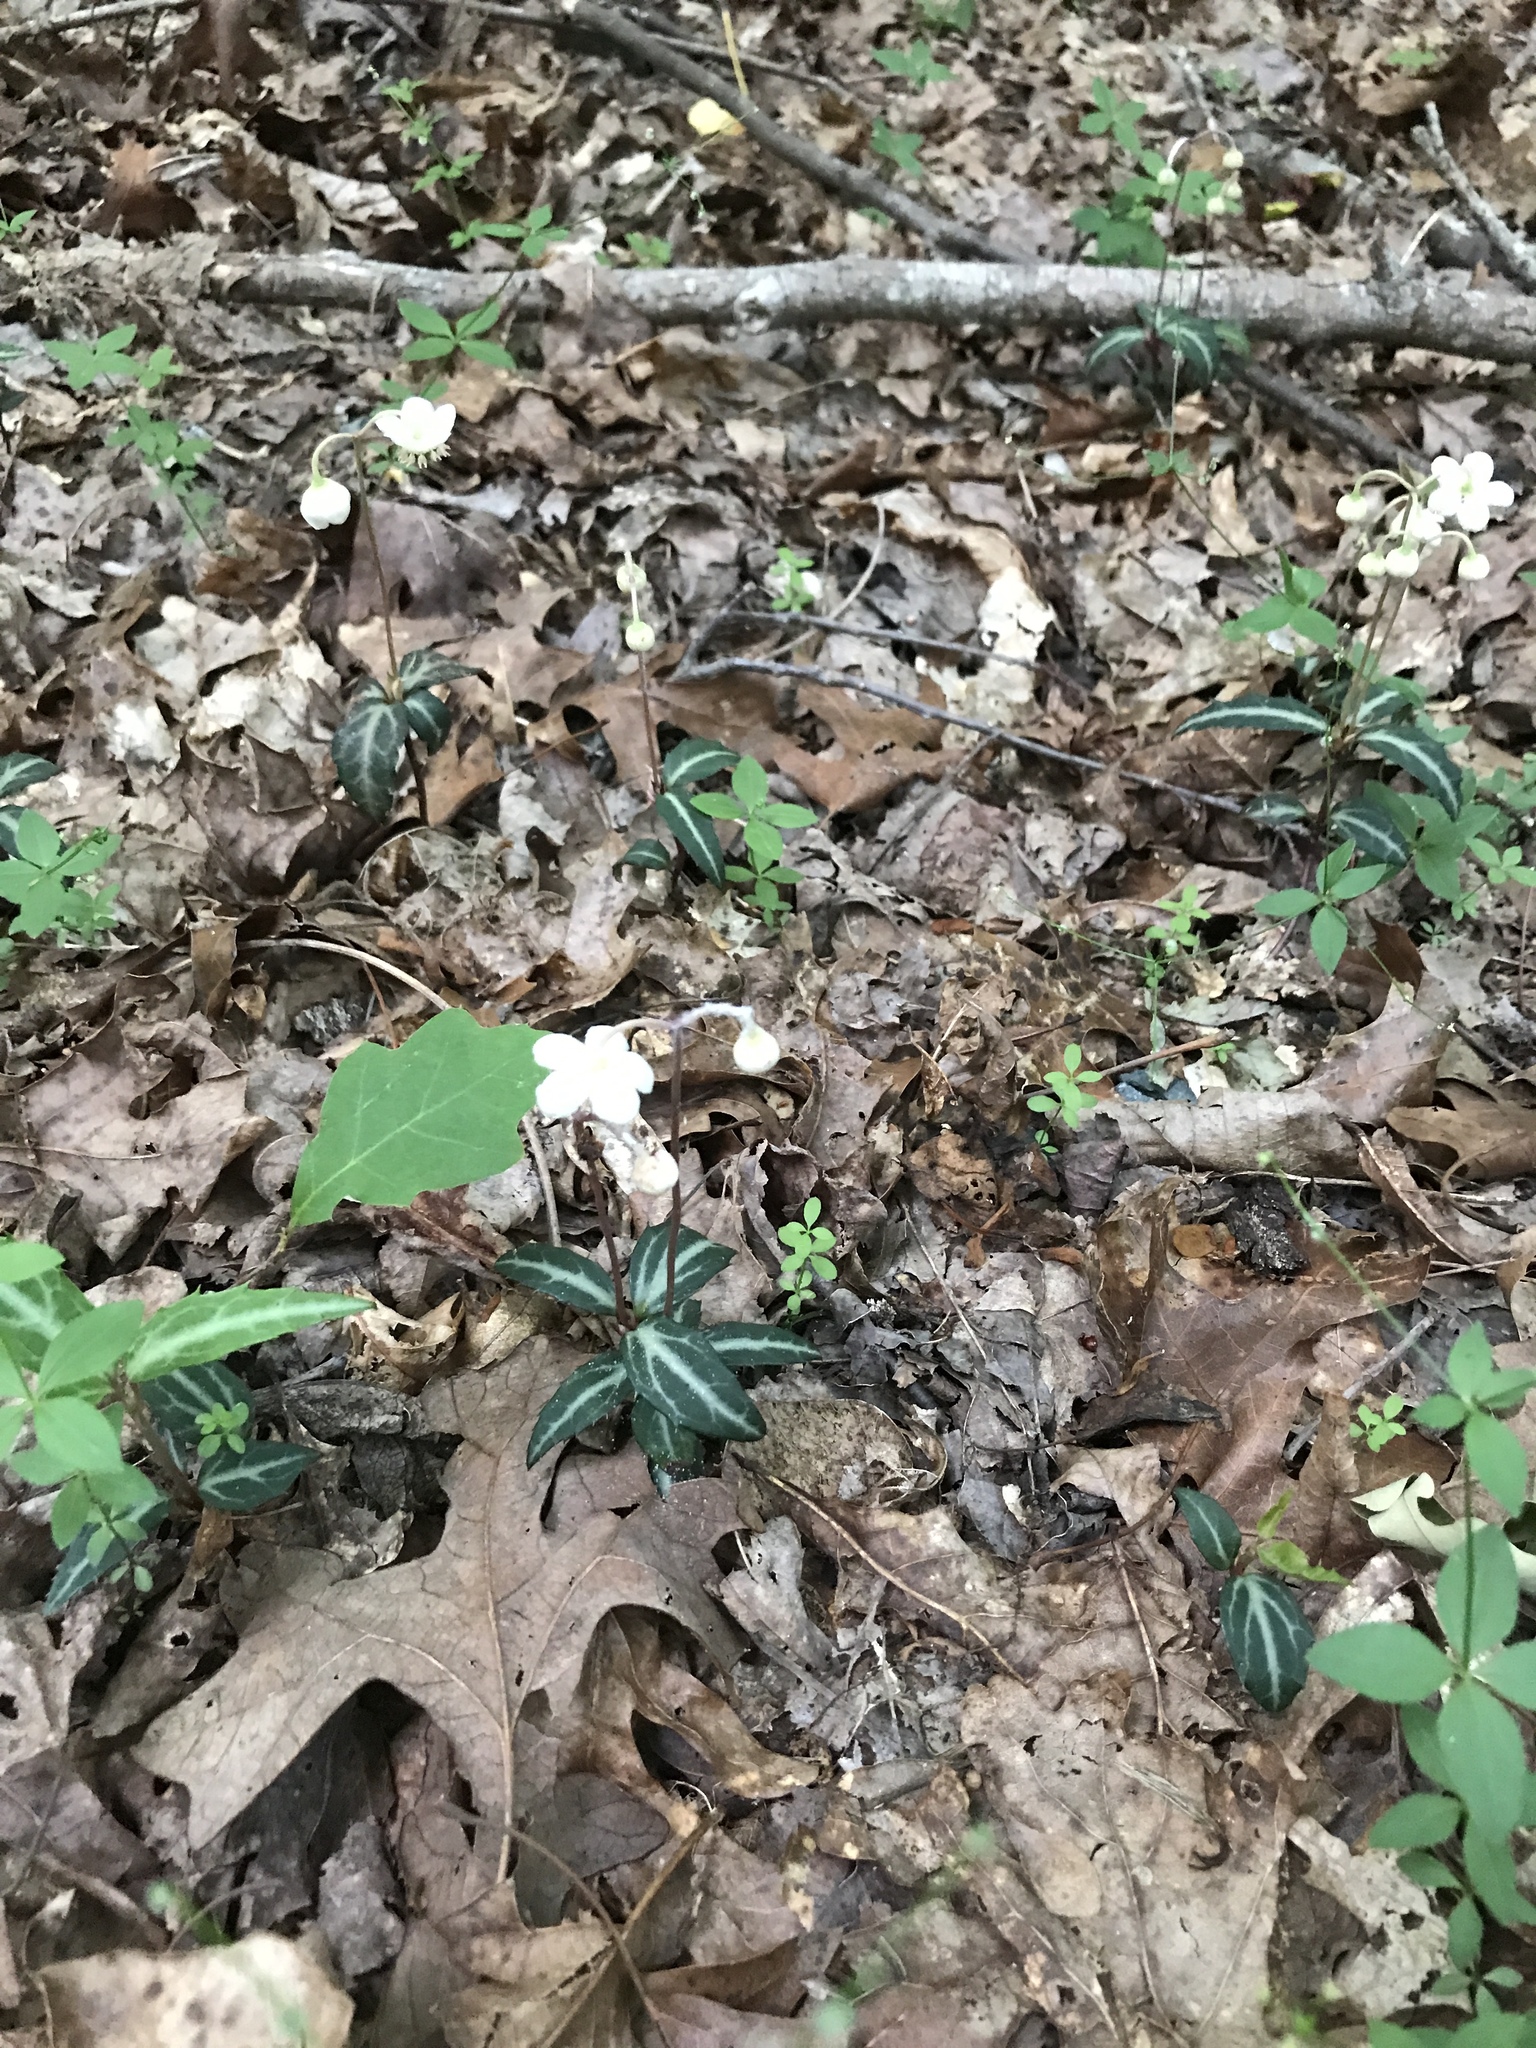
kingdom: Plantae
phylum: Tracheophyta
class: Magnoliopsida
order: Ericales
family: Ericaceae
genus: Chimaphila
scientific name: Chimaphila maculata
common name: Spotted pipsissewa
